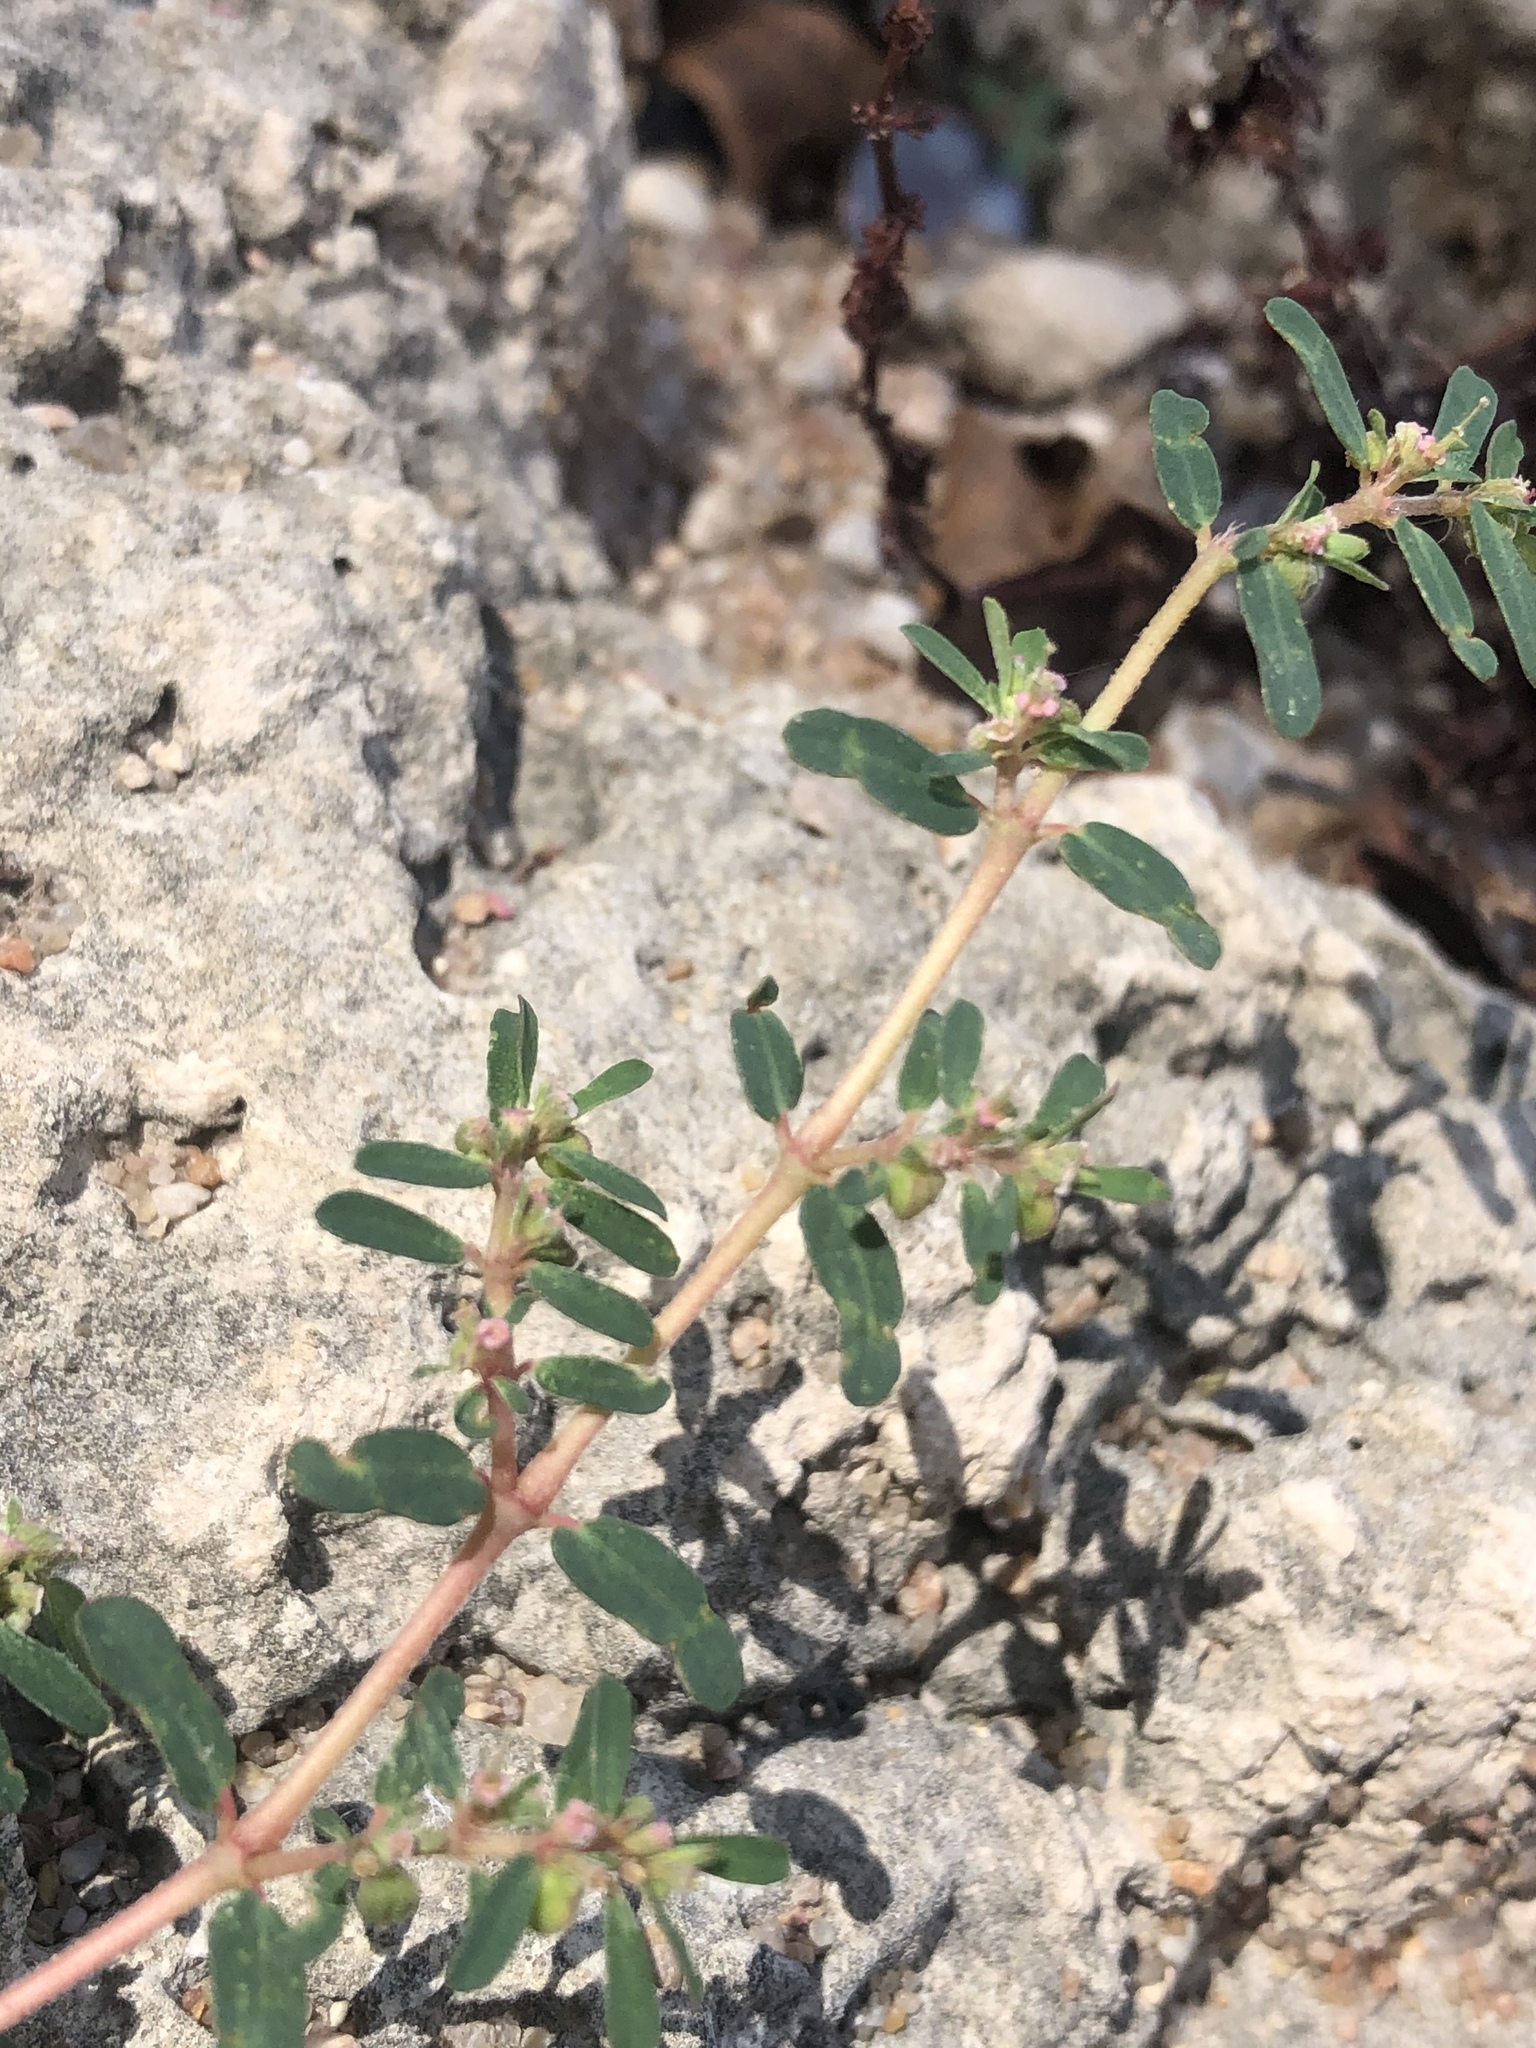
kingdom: Plantae
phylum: Tracheophyta
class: Magnoliopsida
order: Malpighiales
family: Euphorbiaceae
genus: Euphorbia
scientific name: Euphorbia maculata
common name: Spotted spurge
